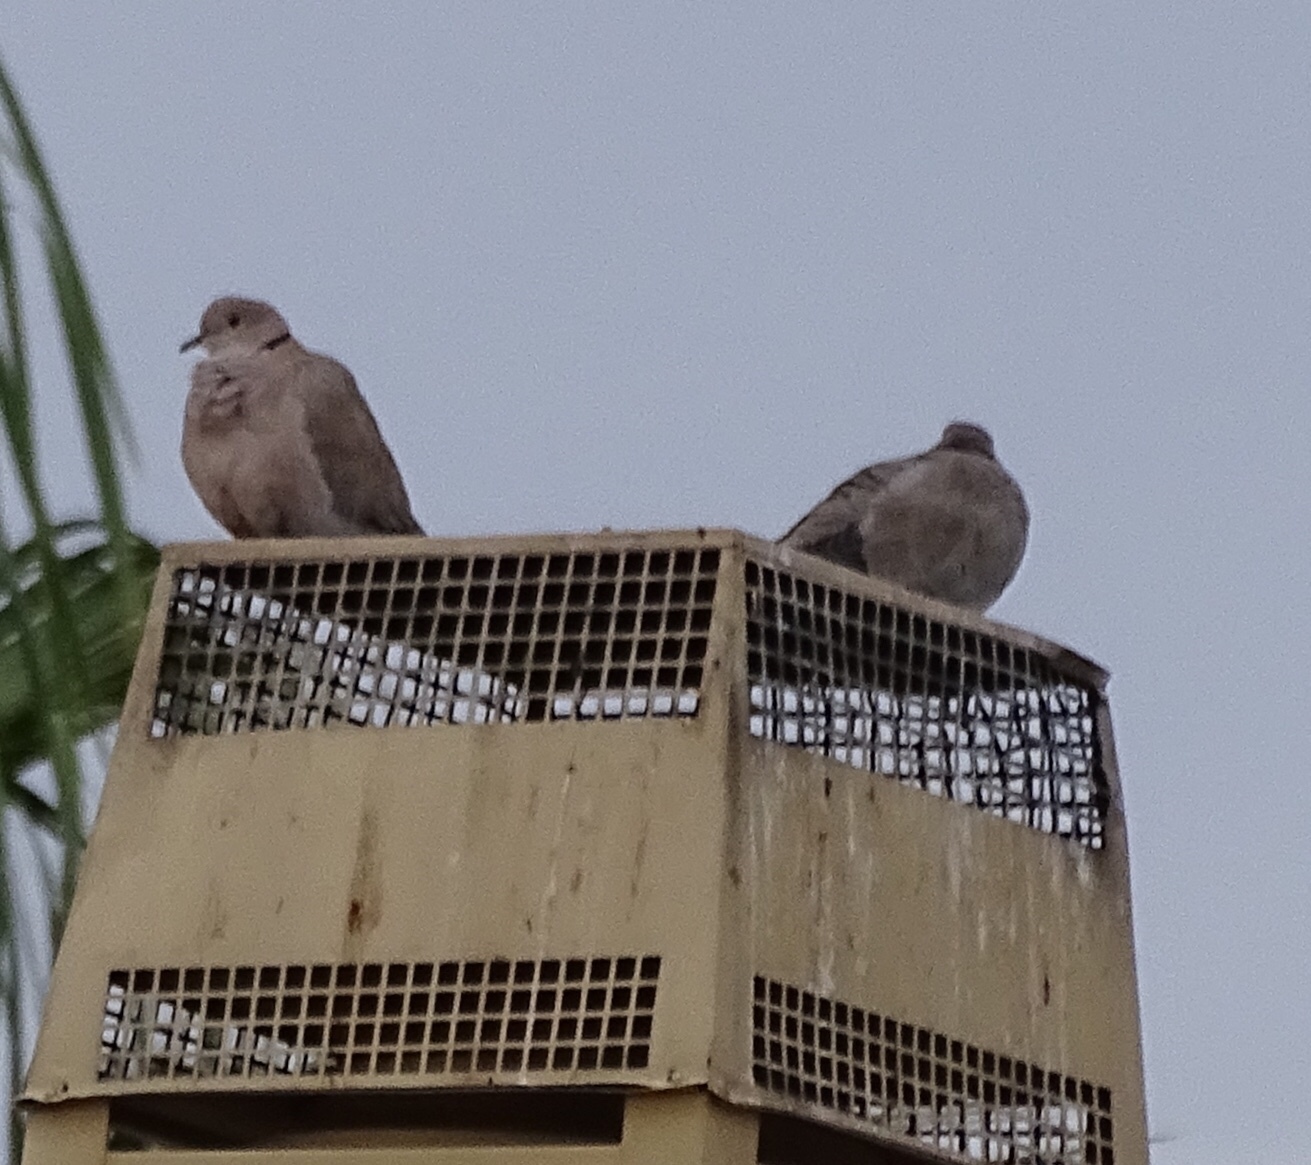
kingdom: Animalia
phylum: Chordata
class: Aves
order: Columbiformes
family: Columbidae
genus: Streptopelia
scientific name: Streptopelia decaocto
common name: Eurasian collared dove
